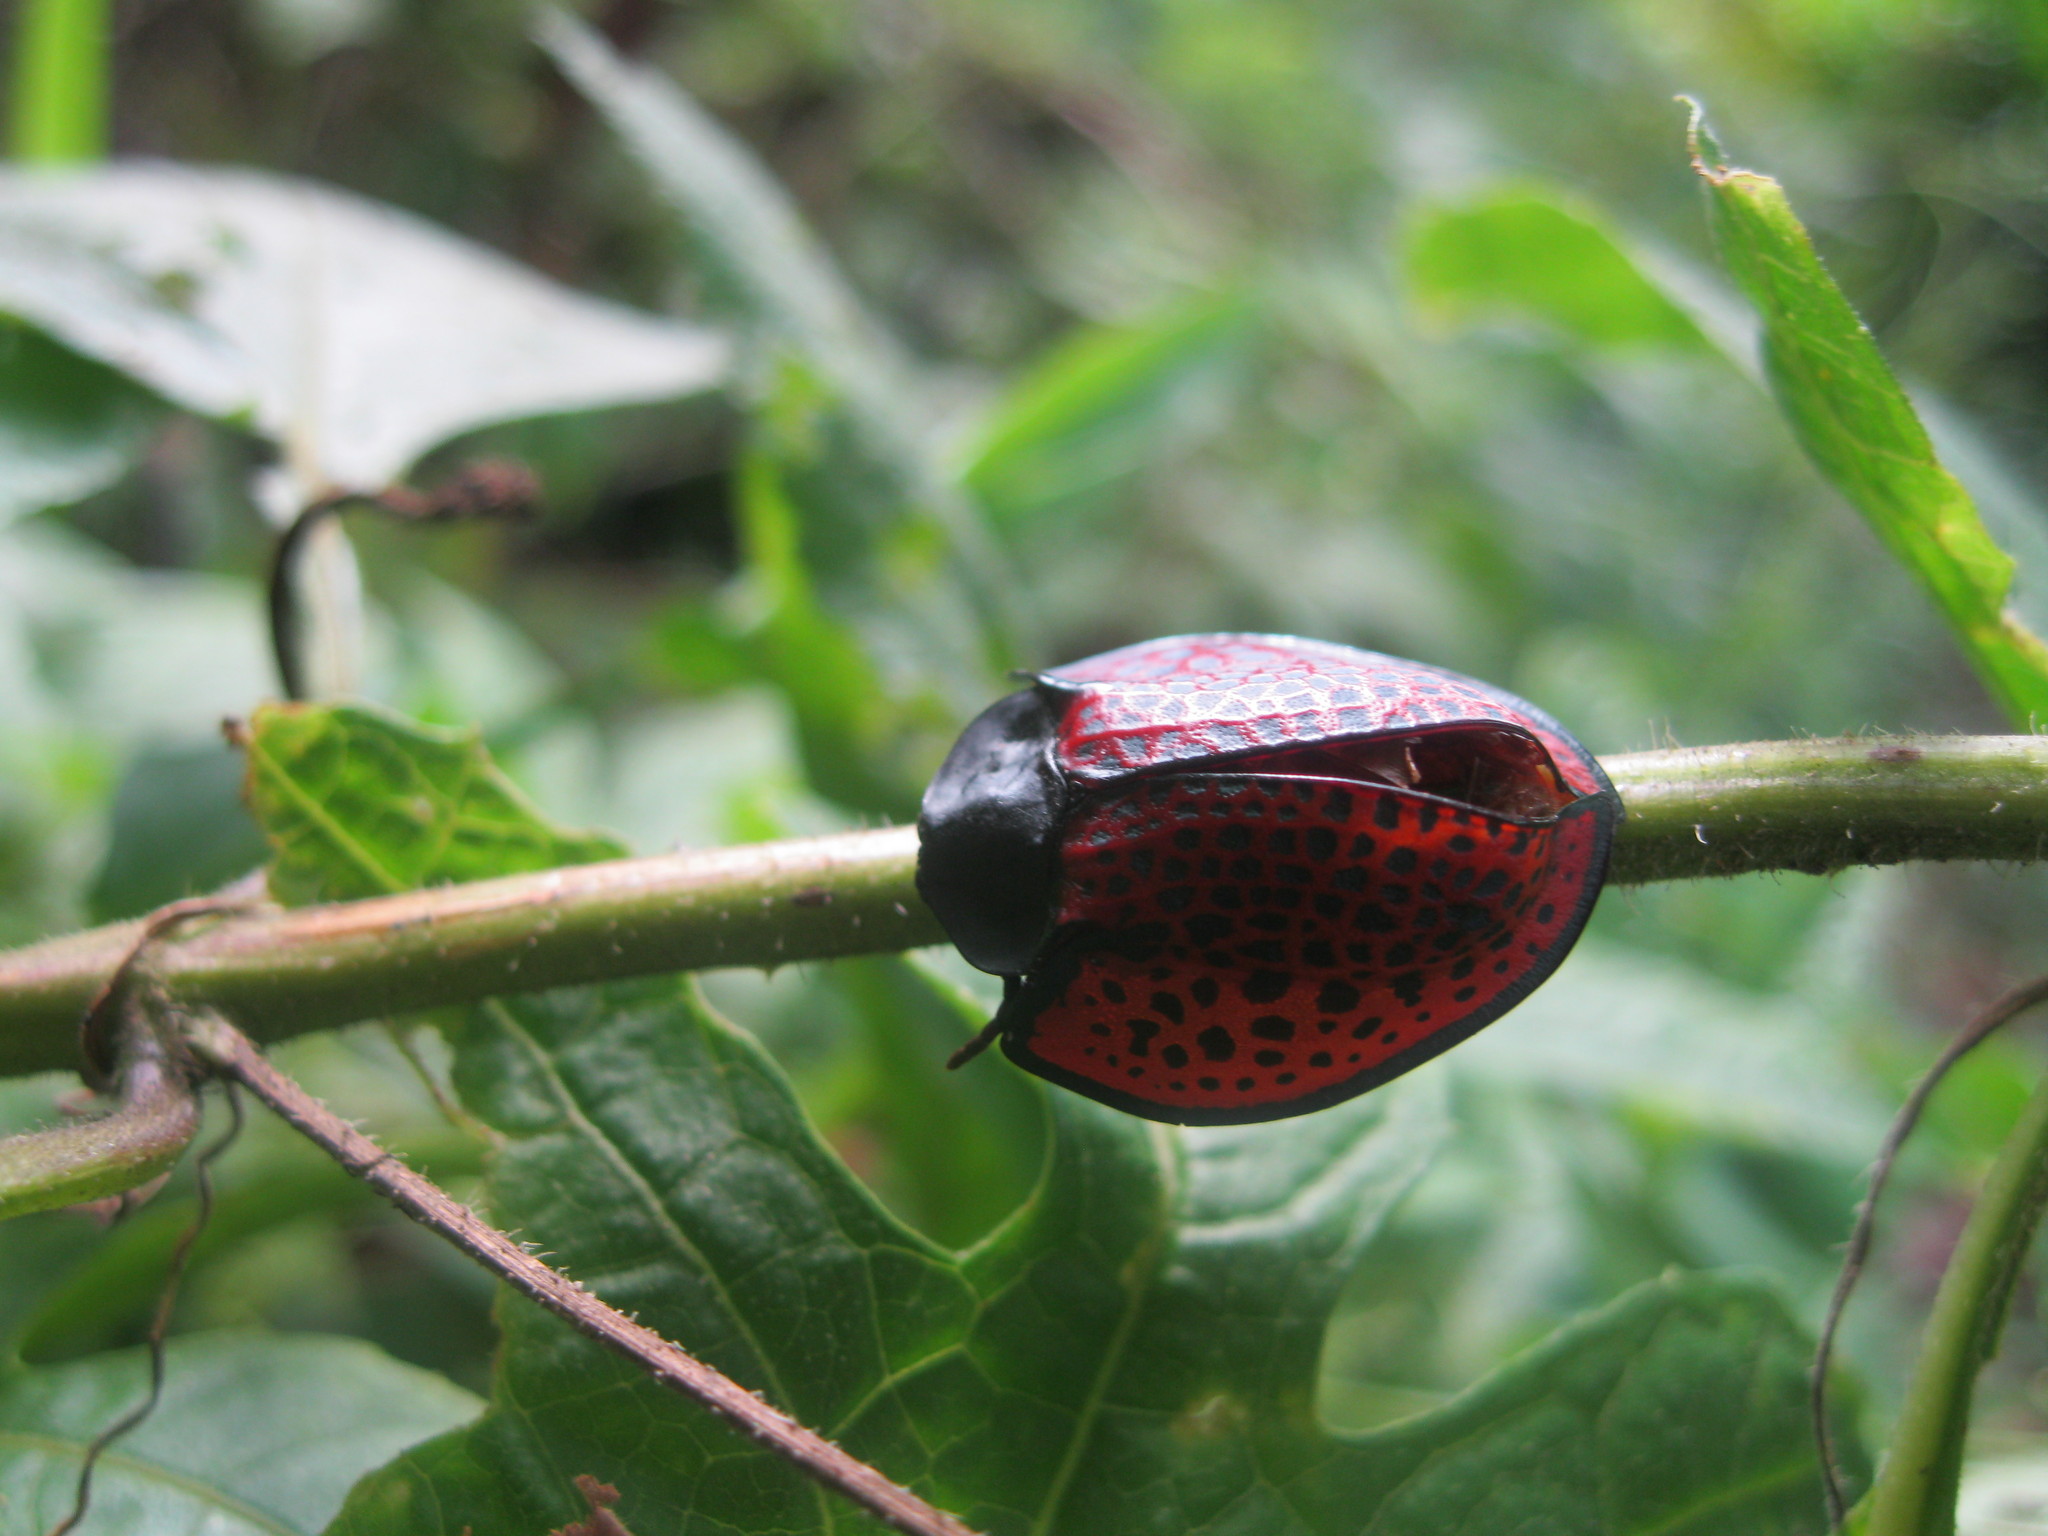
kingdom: Animalia
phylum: Arthropoda
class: Insecta
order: Coleoptera
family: Chrysomelidae
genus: Eugenysa
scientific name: Eugenysa columbiana
